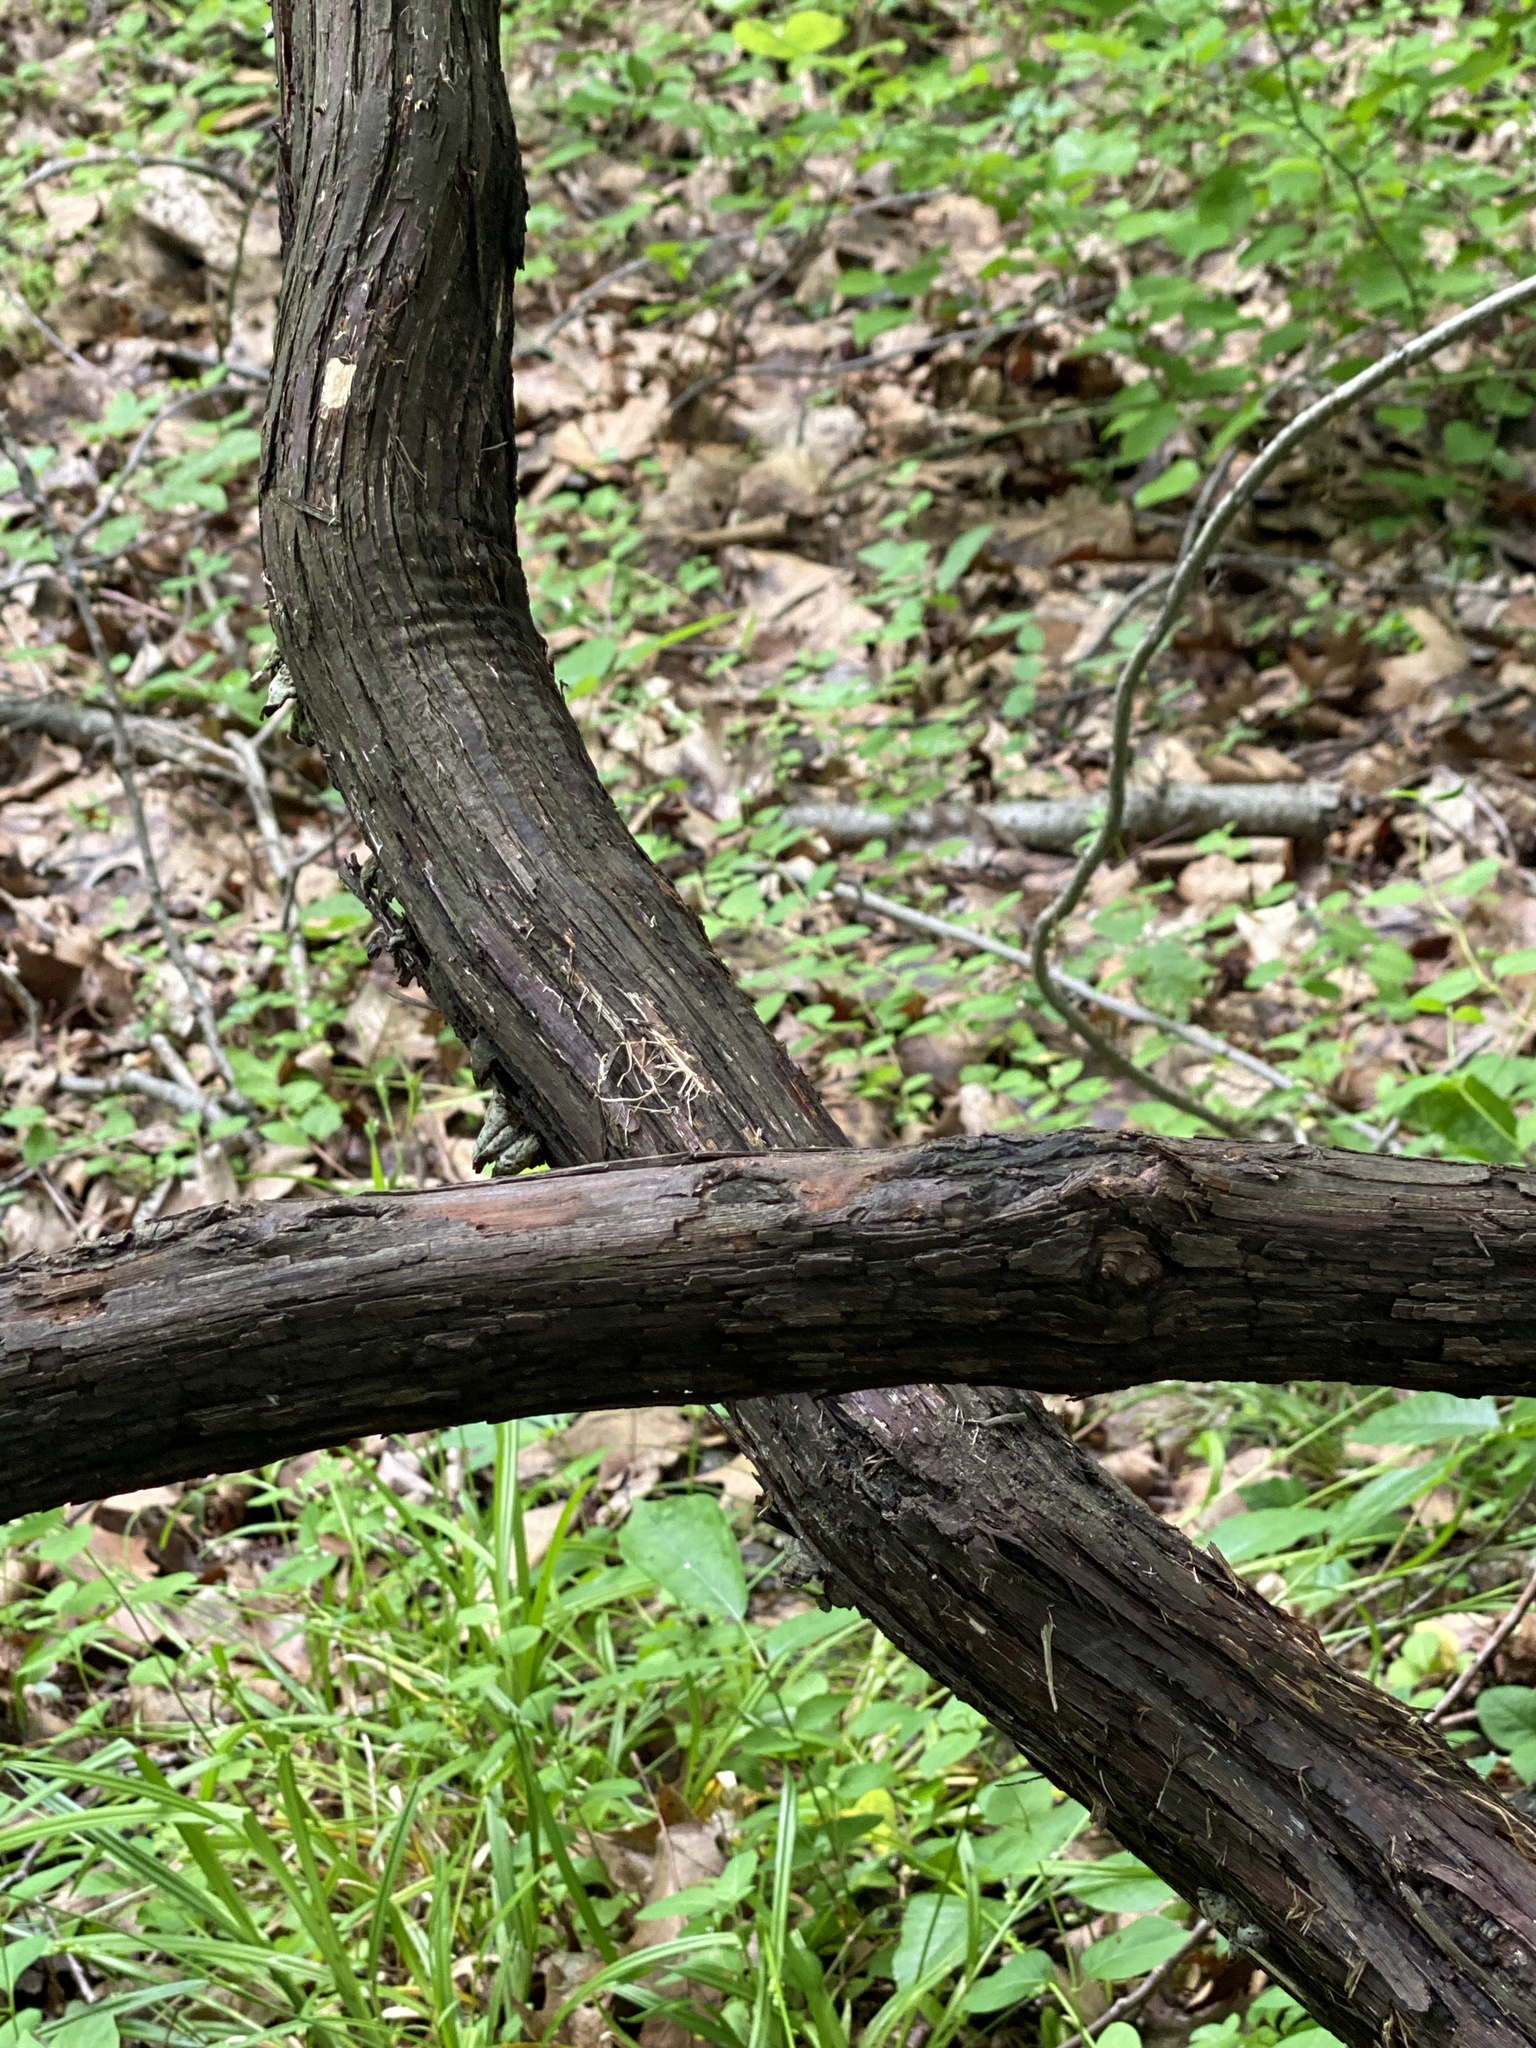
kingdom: Plantae
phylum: Tracheophyta
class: Magnoliopsida
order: Vitales
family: Vitaceae
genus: Vitis
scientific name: Vitis
